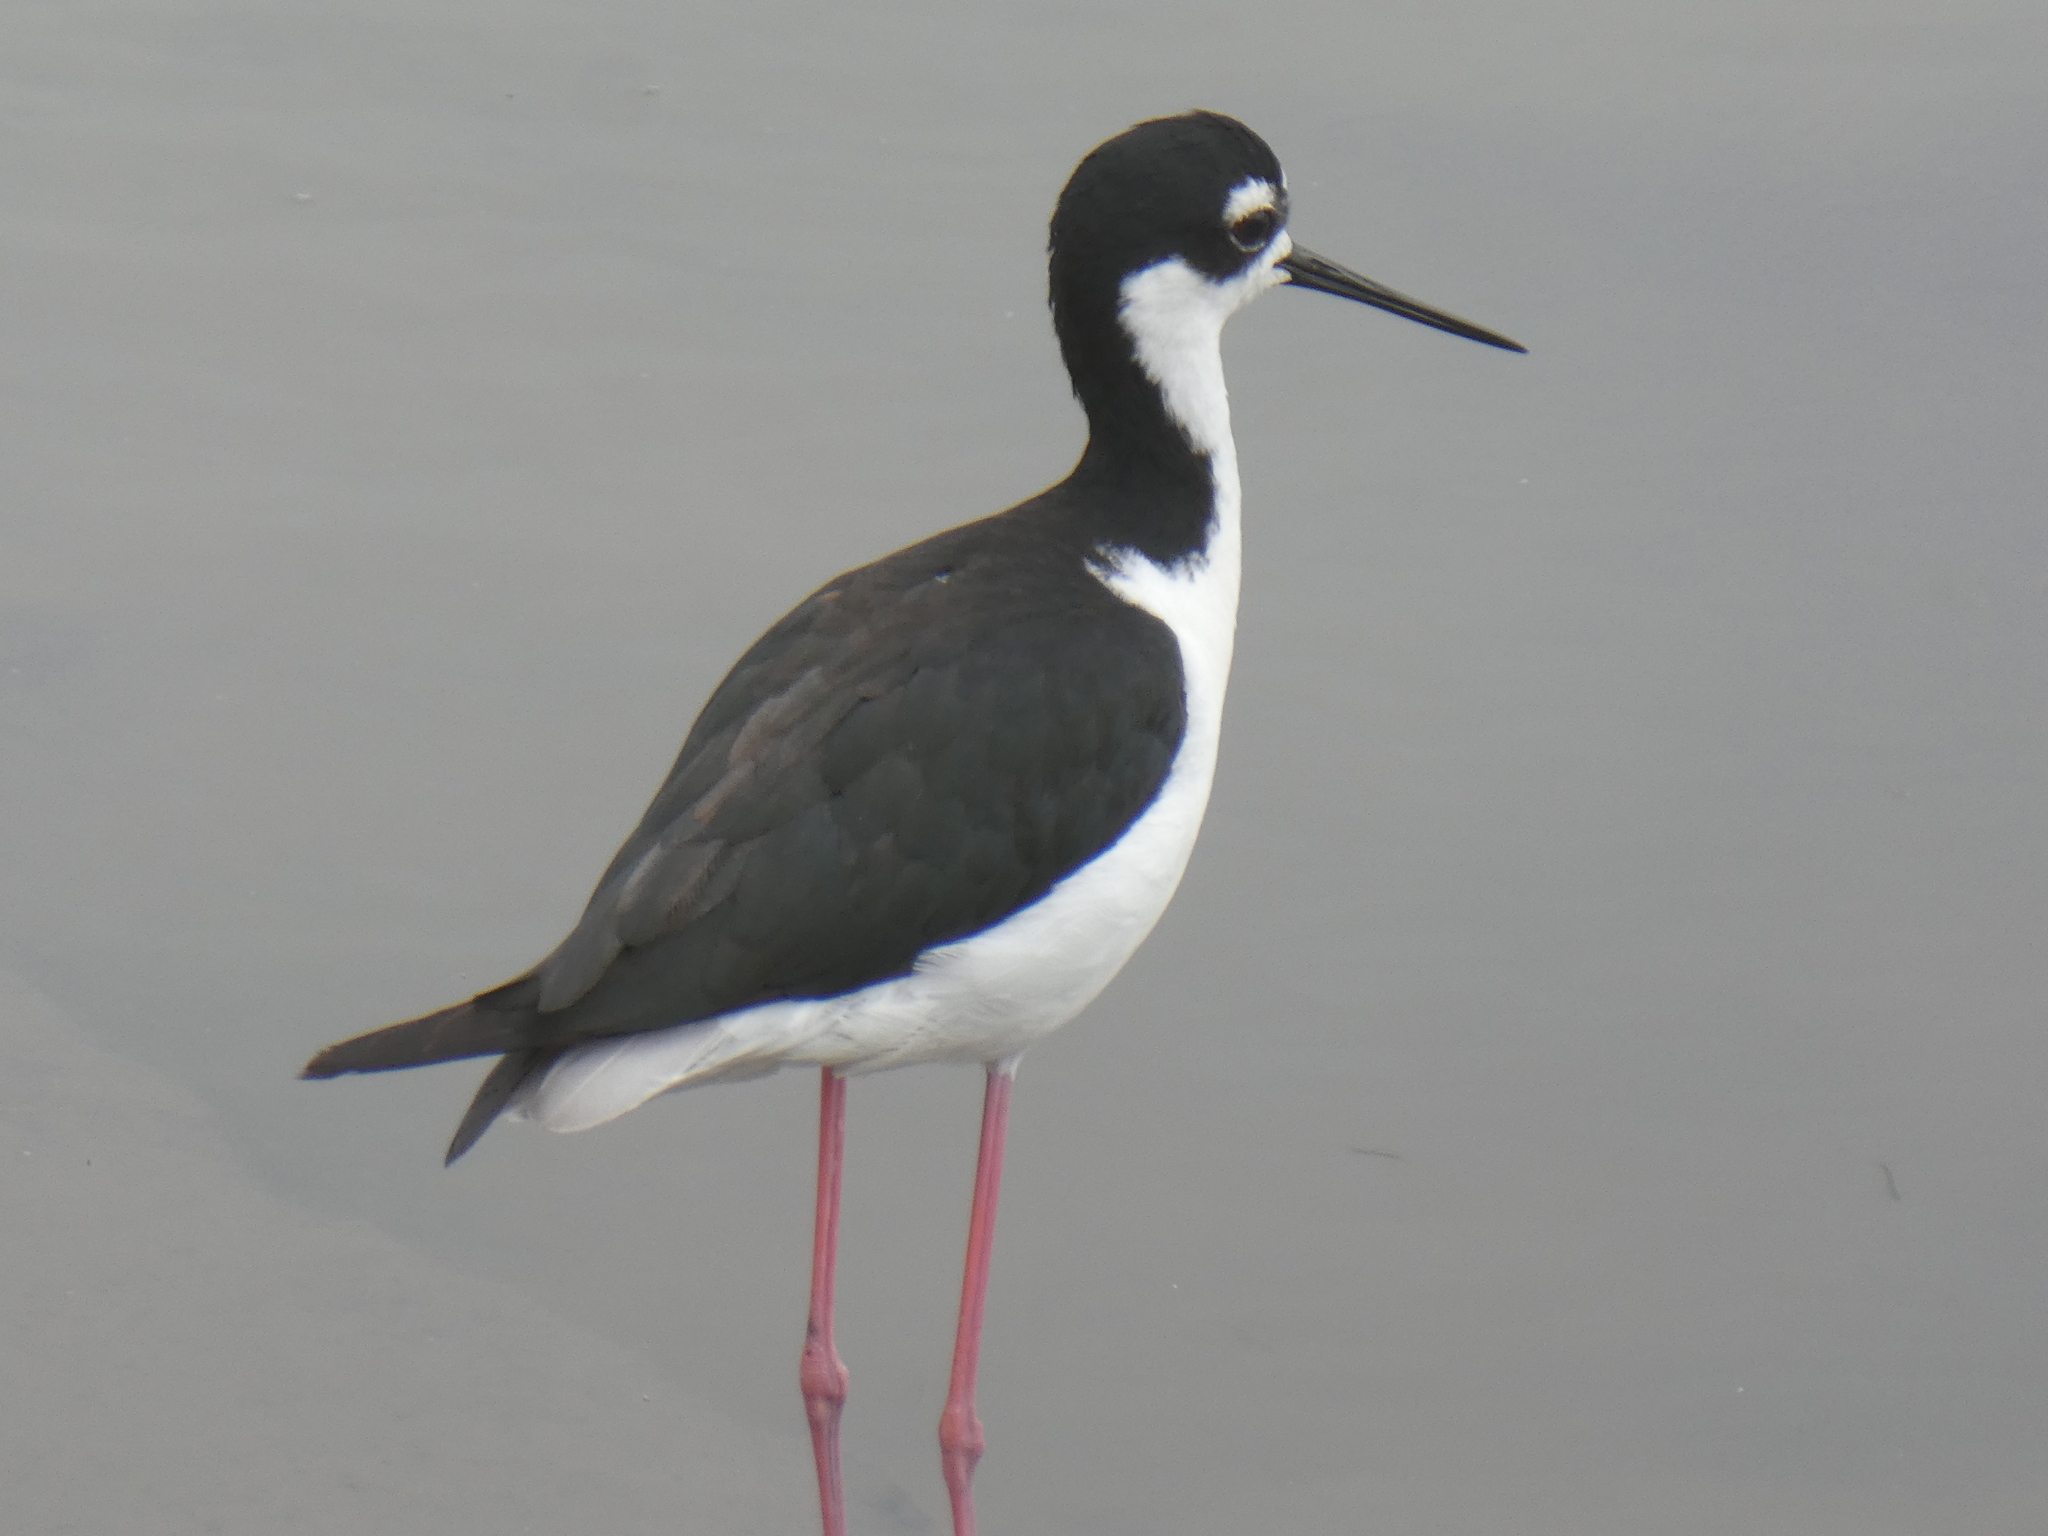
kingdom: Animalia
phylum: Chordata
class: Aves
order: Charadriiformes
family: Recurvirostridae
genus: Himantopus
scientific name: Himantopus mexicanus
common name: Black-necked stilt
